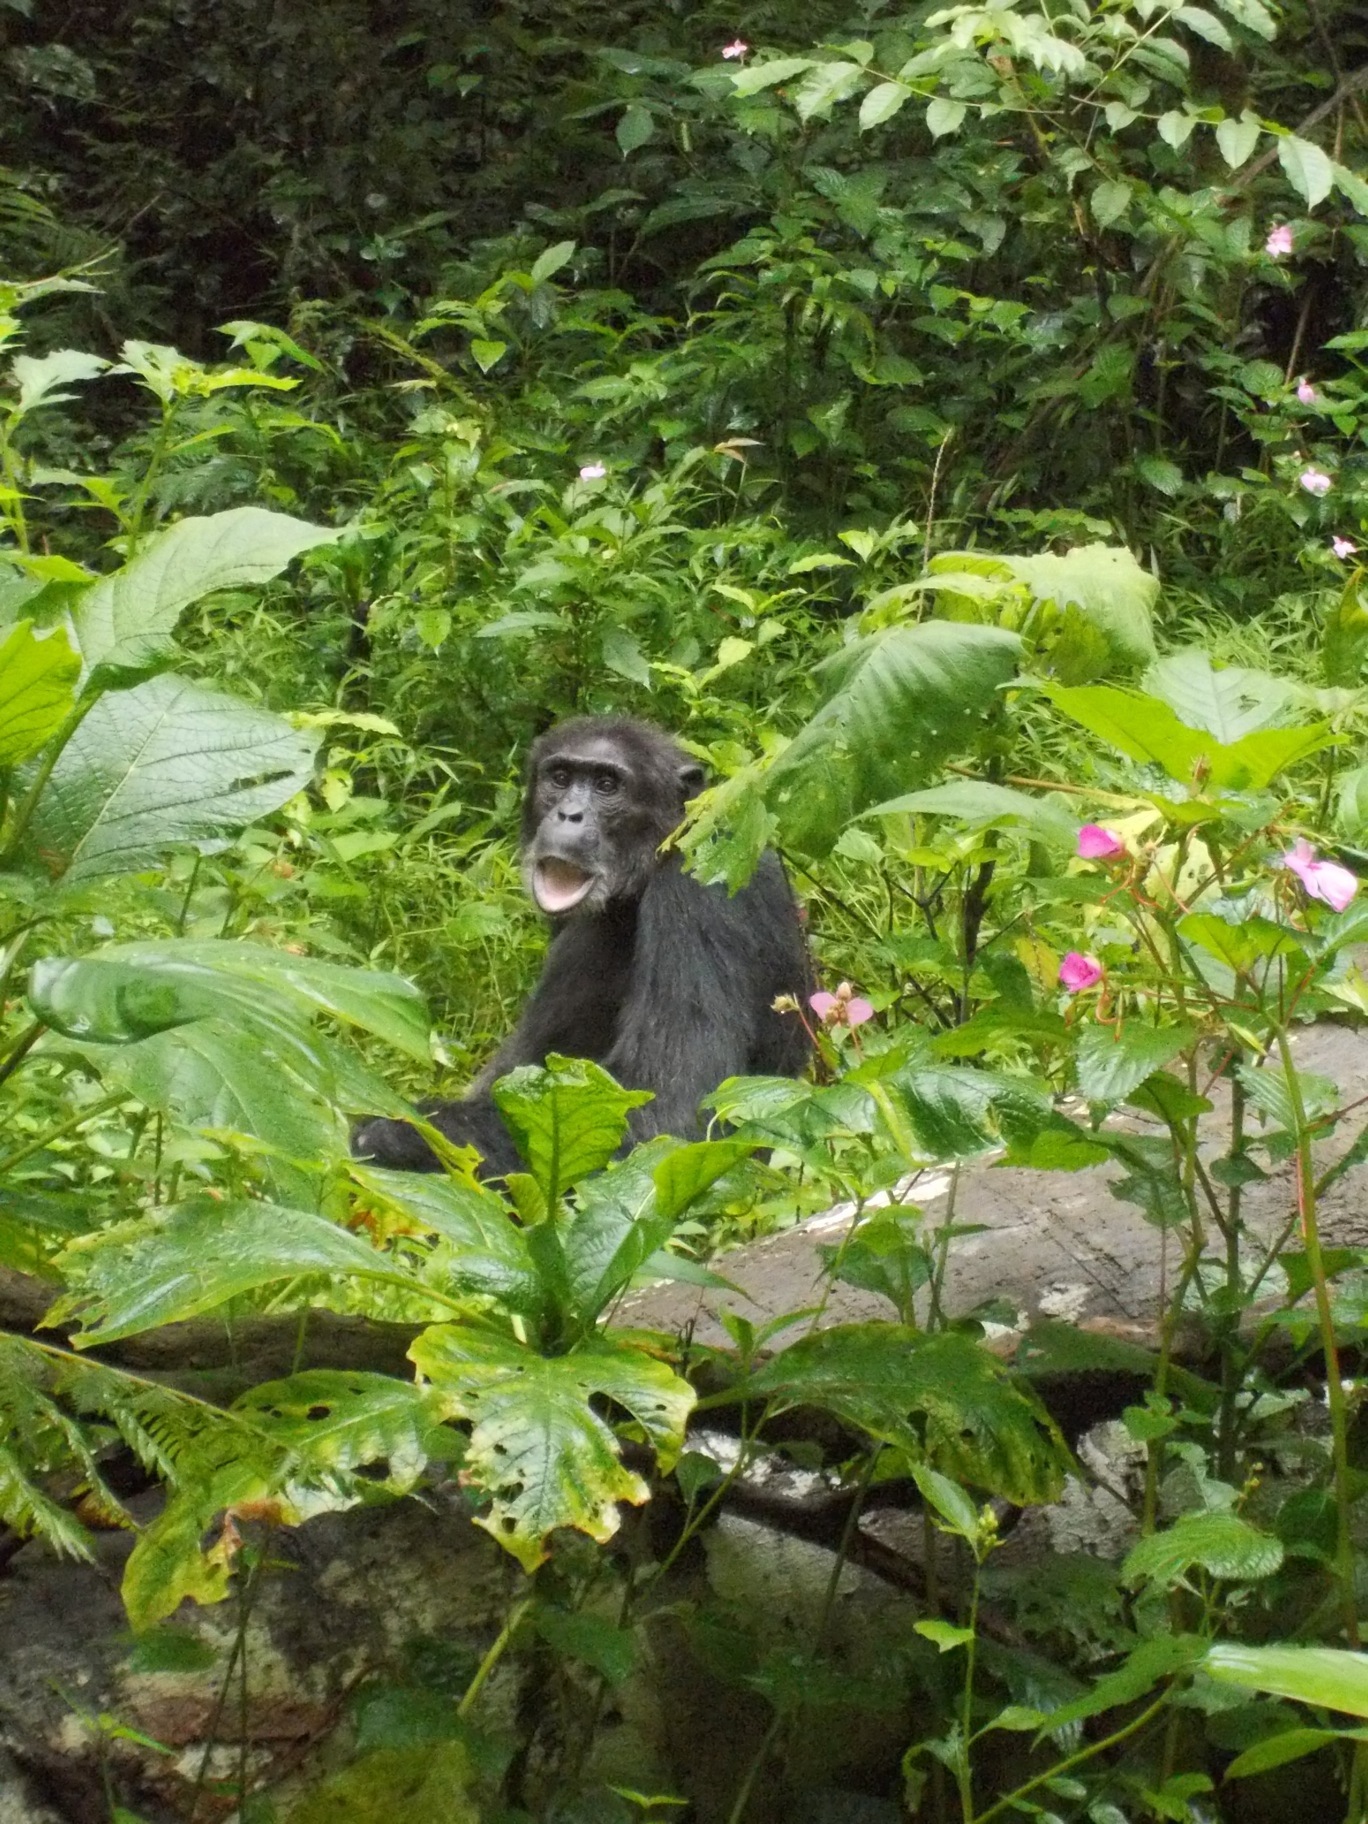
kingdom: Animalia
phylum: Chordata
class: Mammalia
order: Primates
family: Hominidae
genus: Pan
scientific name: Pan troglodytes
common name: Chimpanzee
